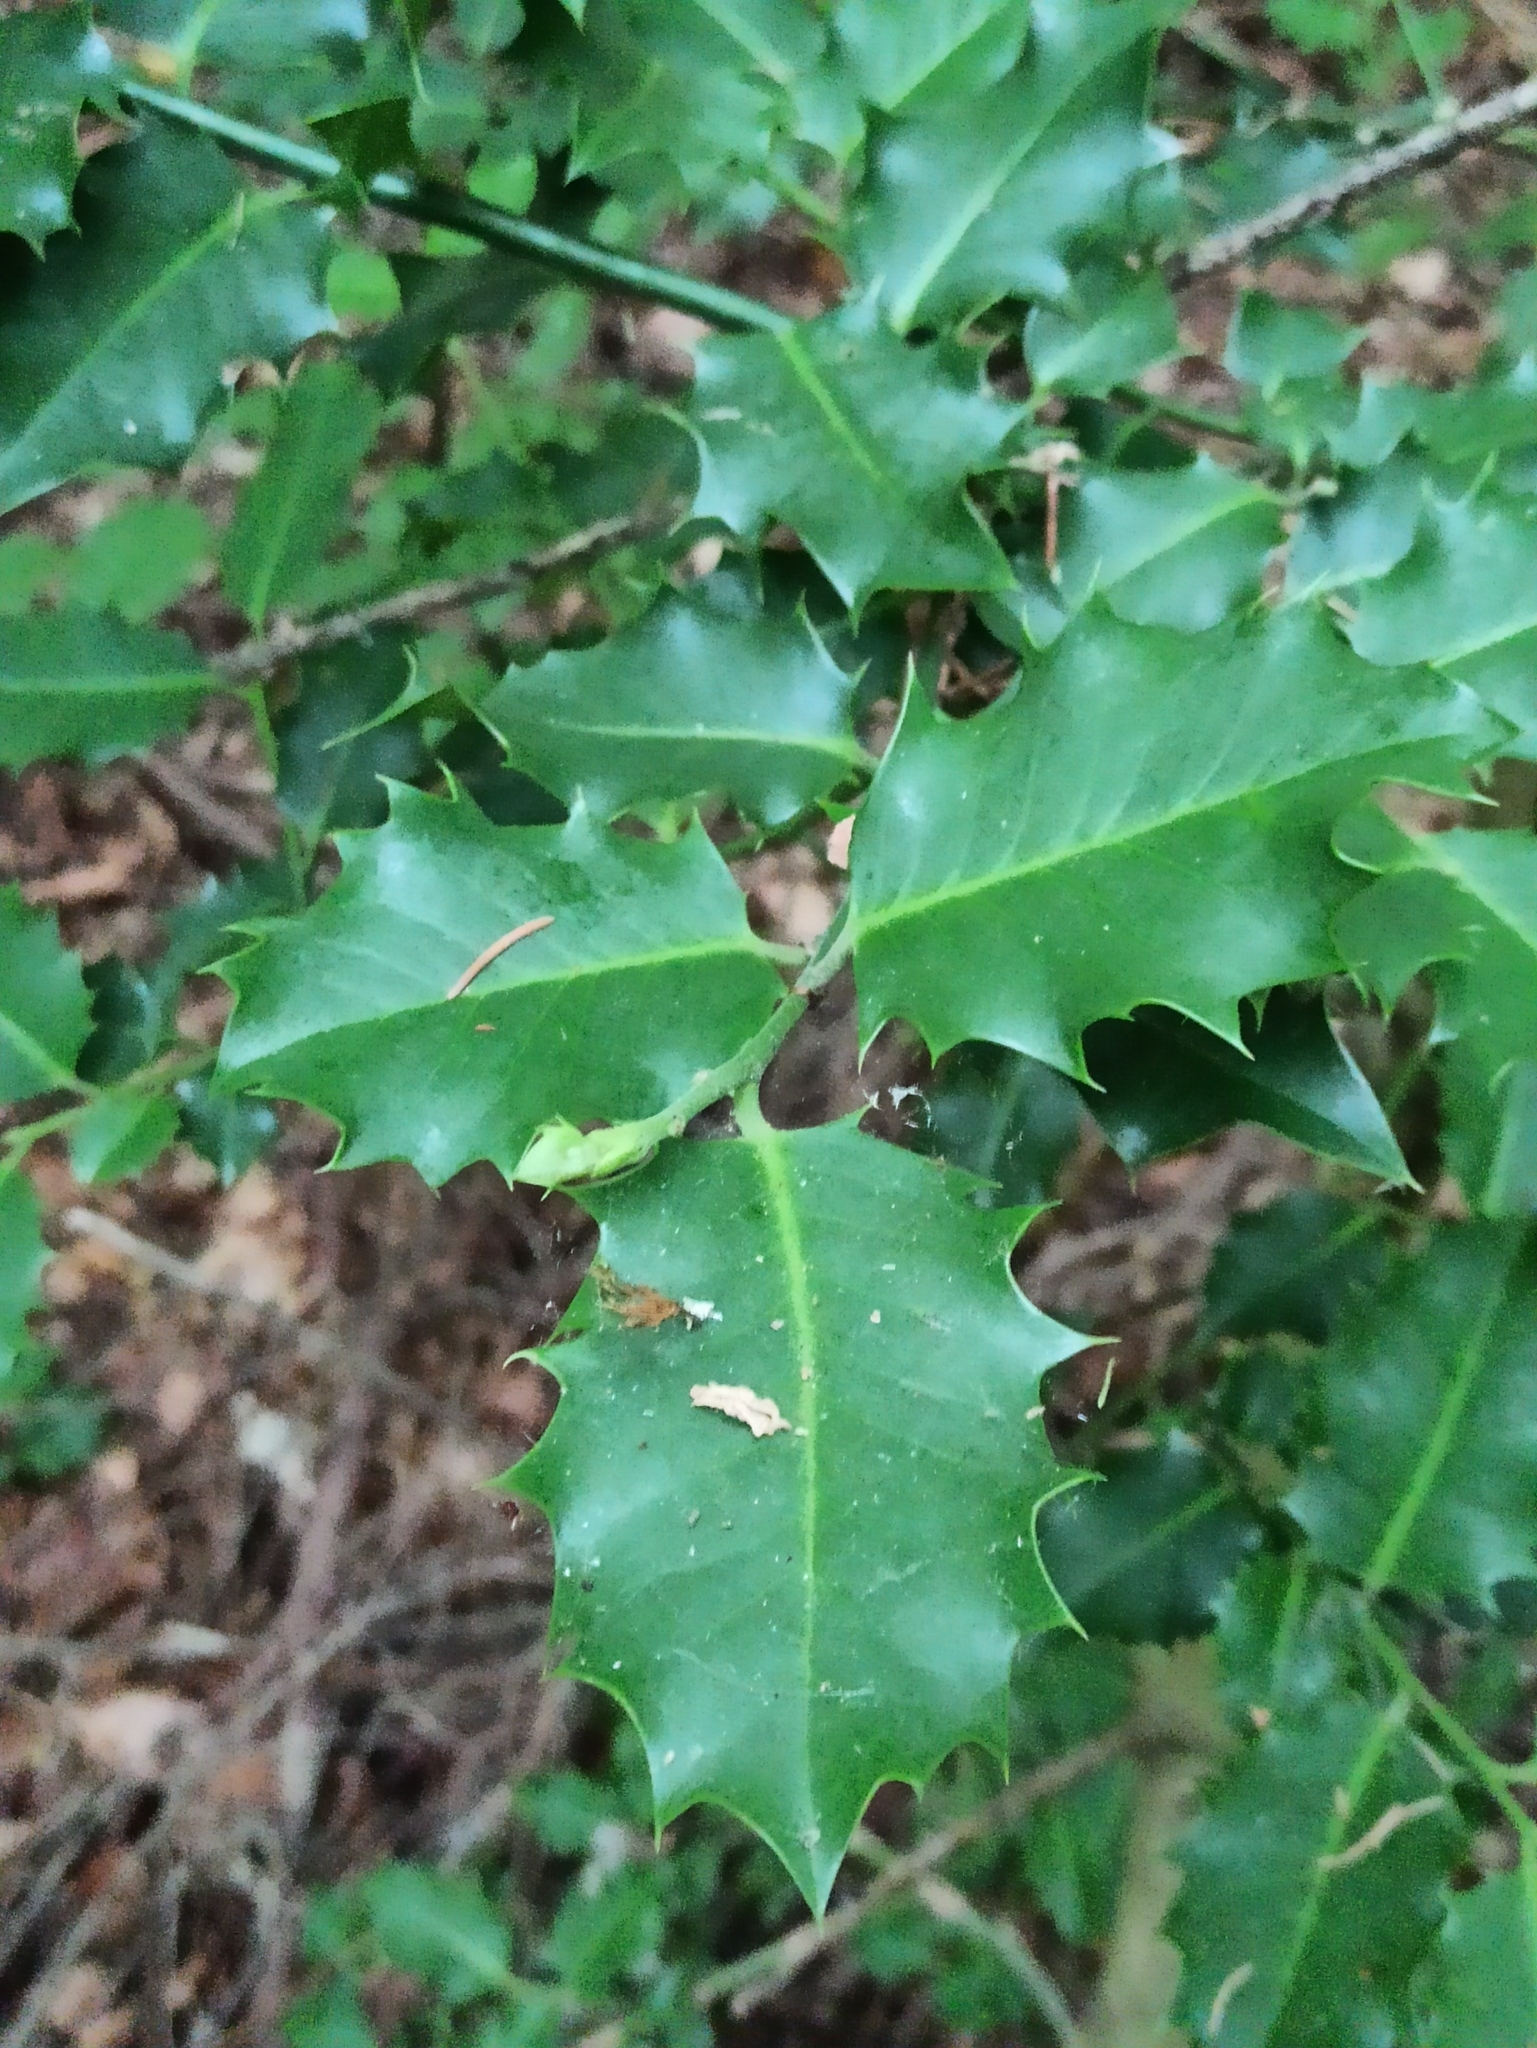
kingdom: Plantae
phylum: Tracheophyta
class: Magnoliopsida
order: Aquifoliales
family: Aquifoliaceae
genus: Ilex
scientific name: Ilex aquifolium
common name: English holly
